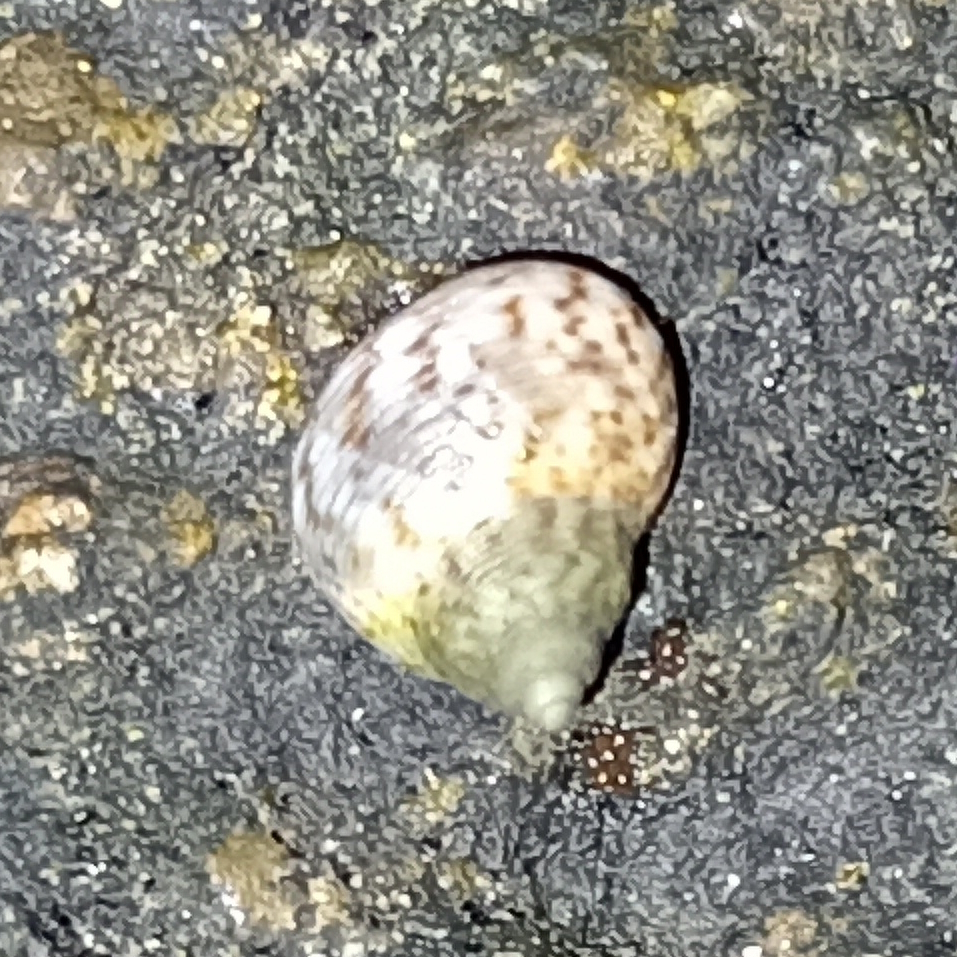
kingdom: Animalia
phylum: Mollusca
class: Gastropoda
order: Littorinimorpha
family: Littorinidae
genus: Littoraria
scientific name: Littoraria flava
